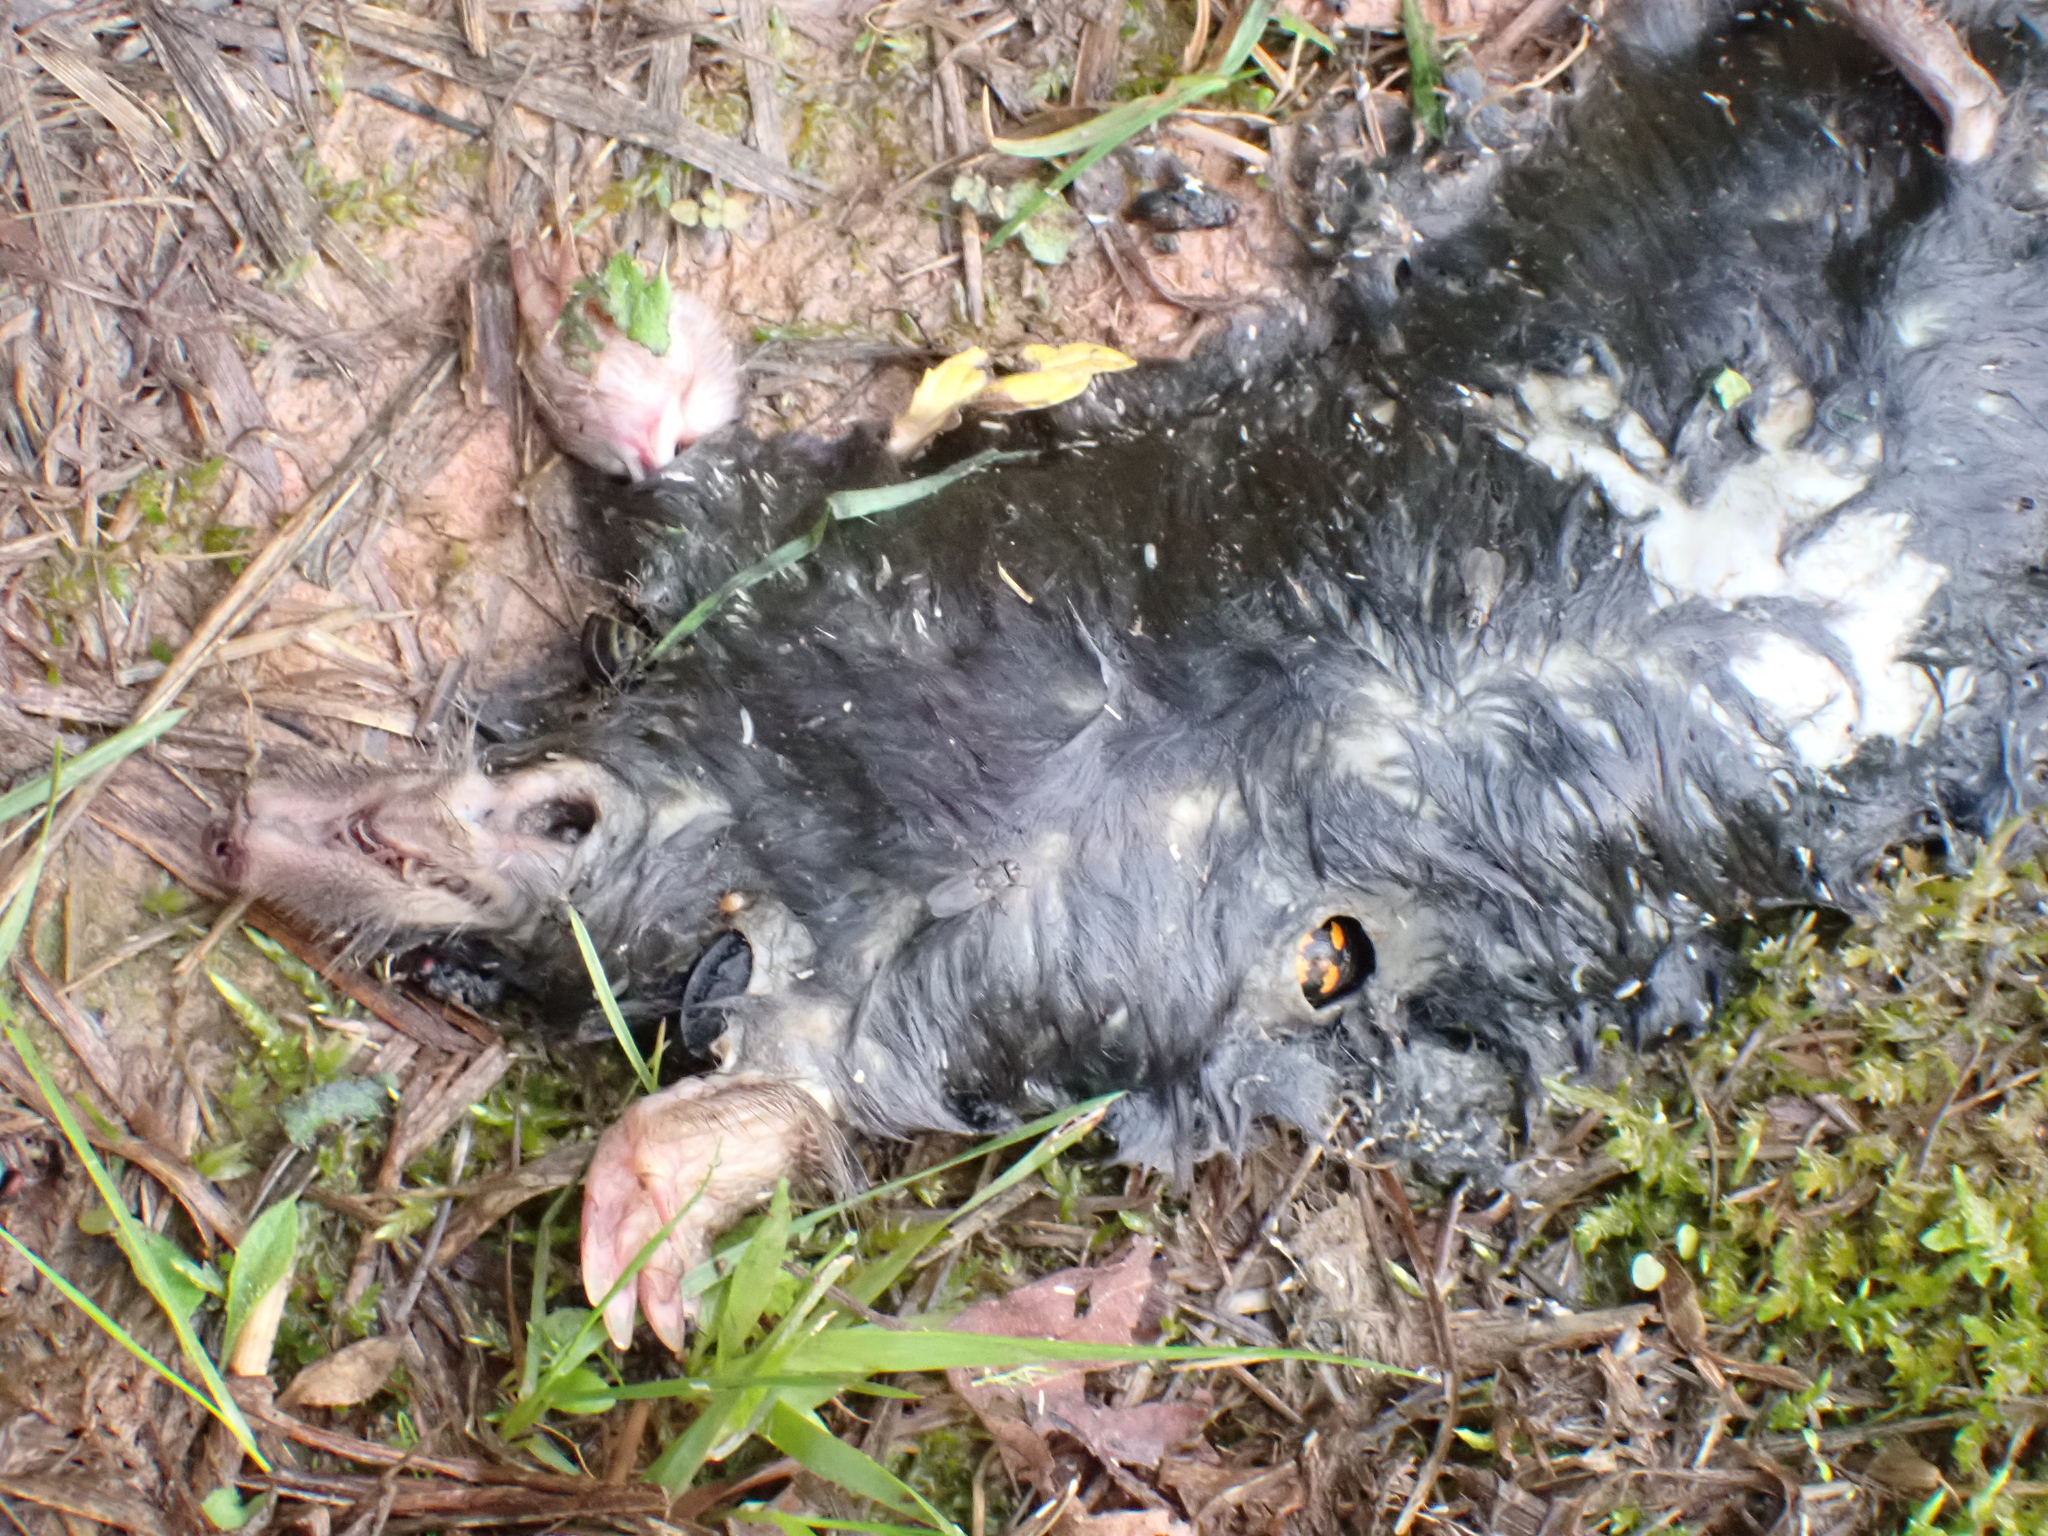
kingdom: Animalia
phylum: Arthropoda
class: Insecta
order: Coleoptera
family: Staphylinidae
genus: Nicrophorus
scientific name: Nicrophorus vespilloides
